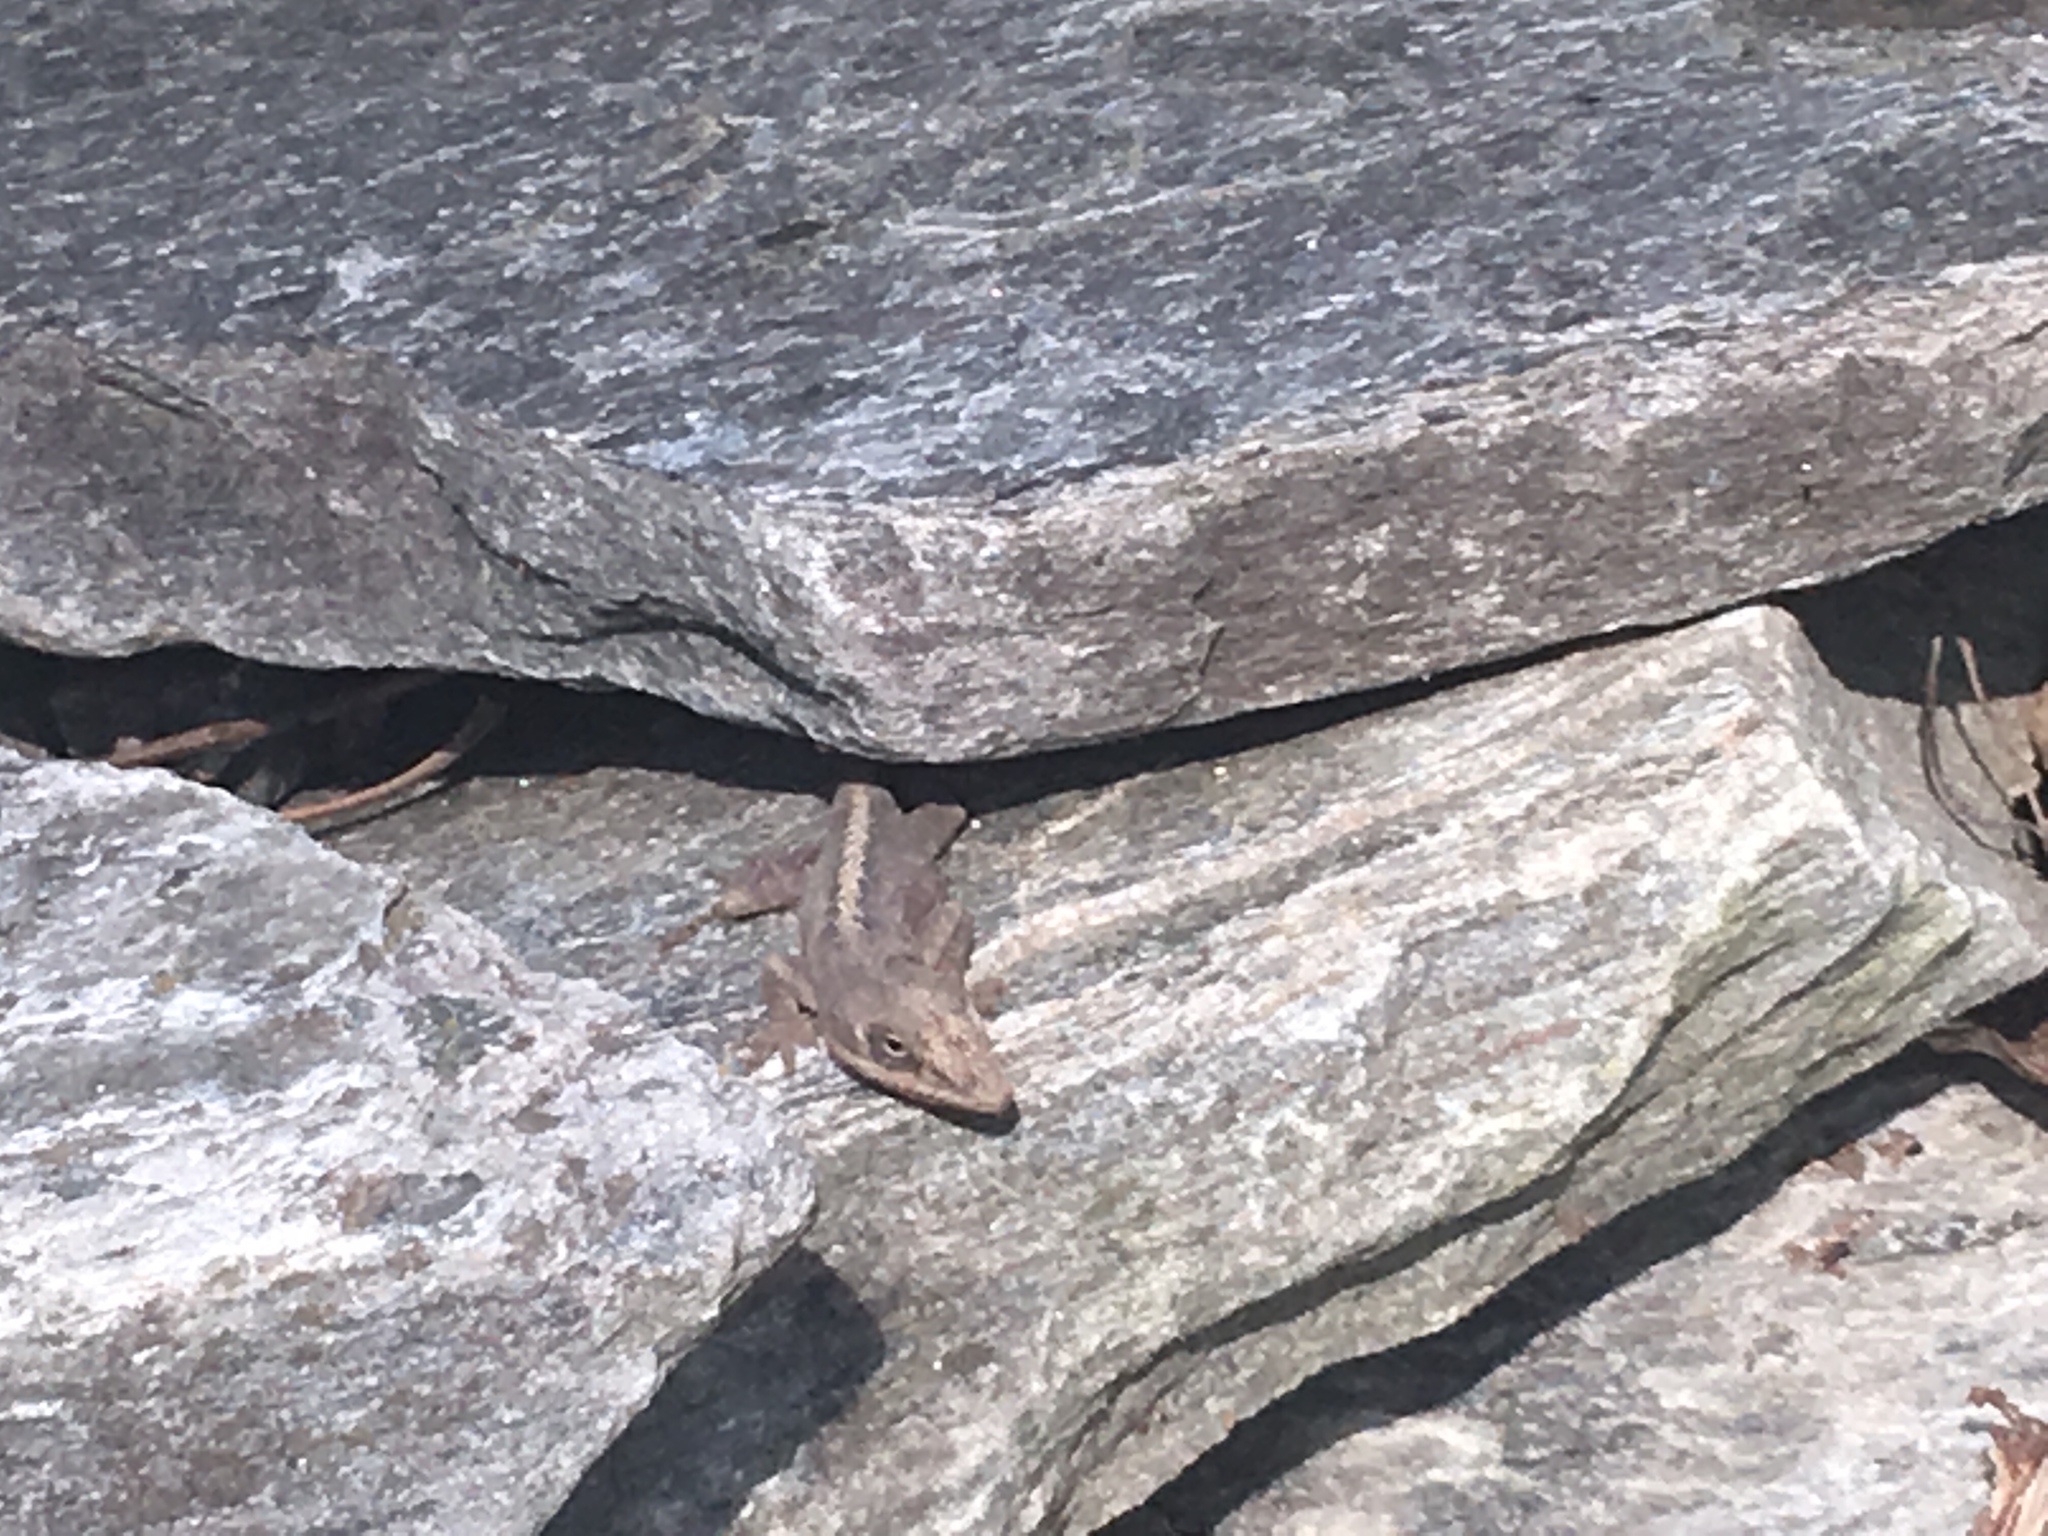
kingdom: Animalia
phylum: Chordata
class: Squamata
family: Dactyloidae
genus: Anolis
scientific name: Anolis carolinensis
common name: Green anole
